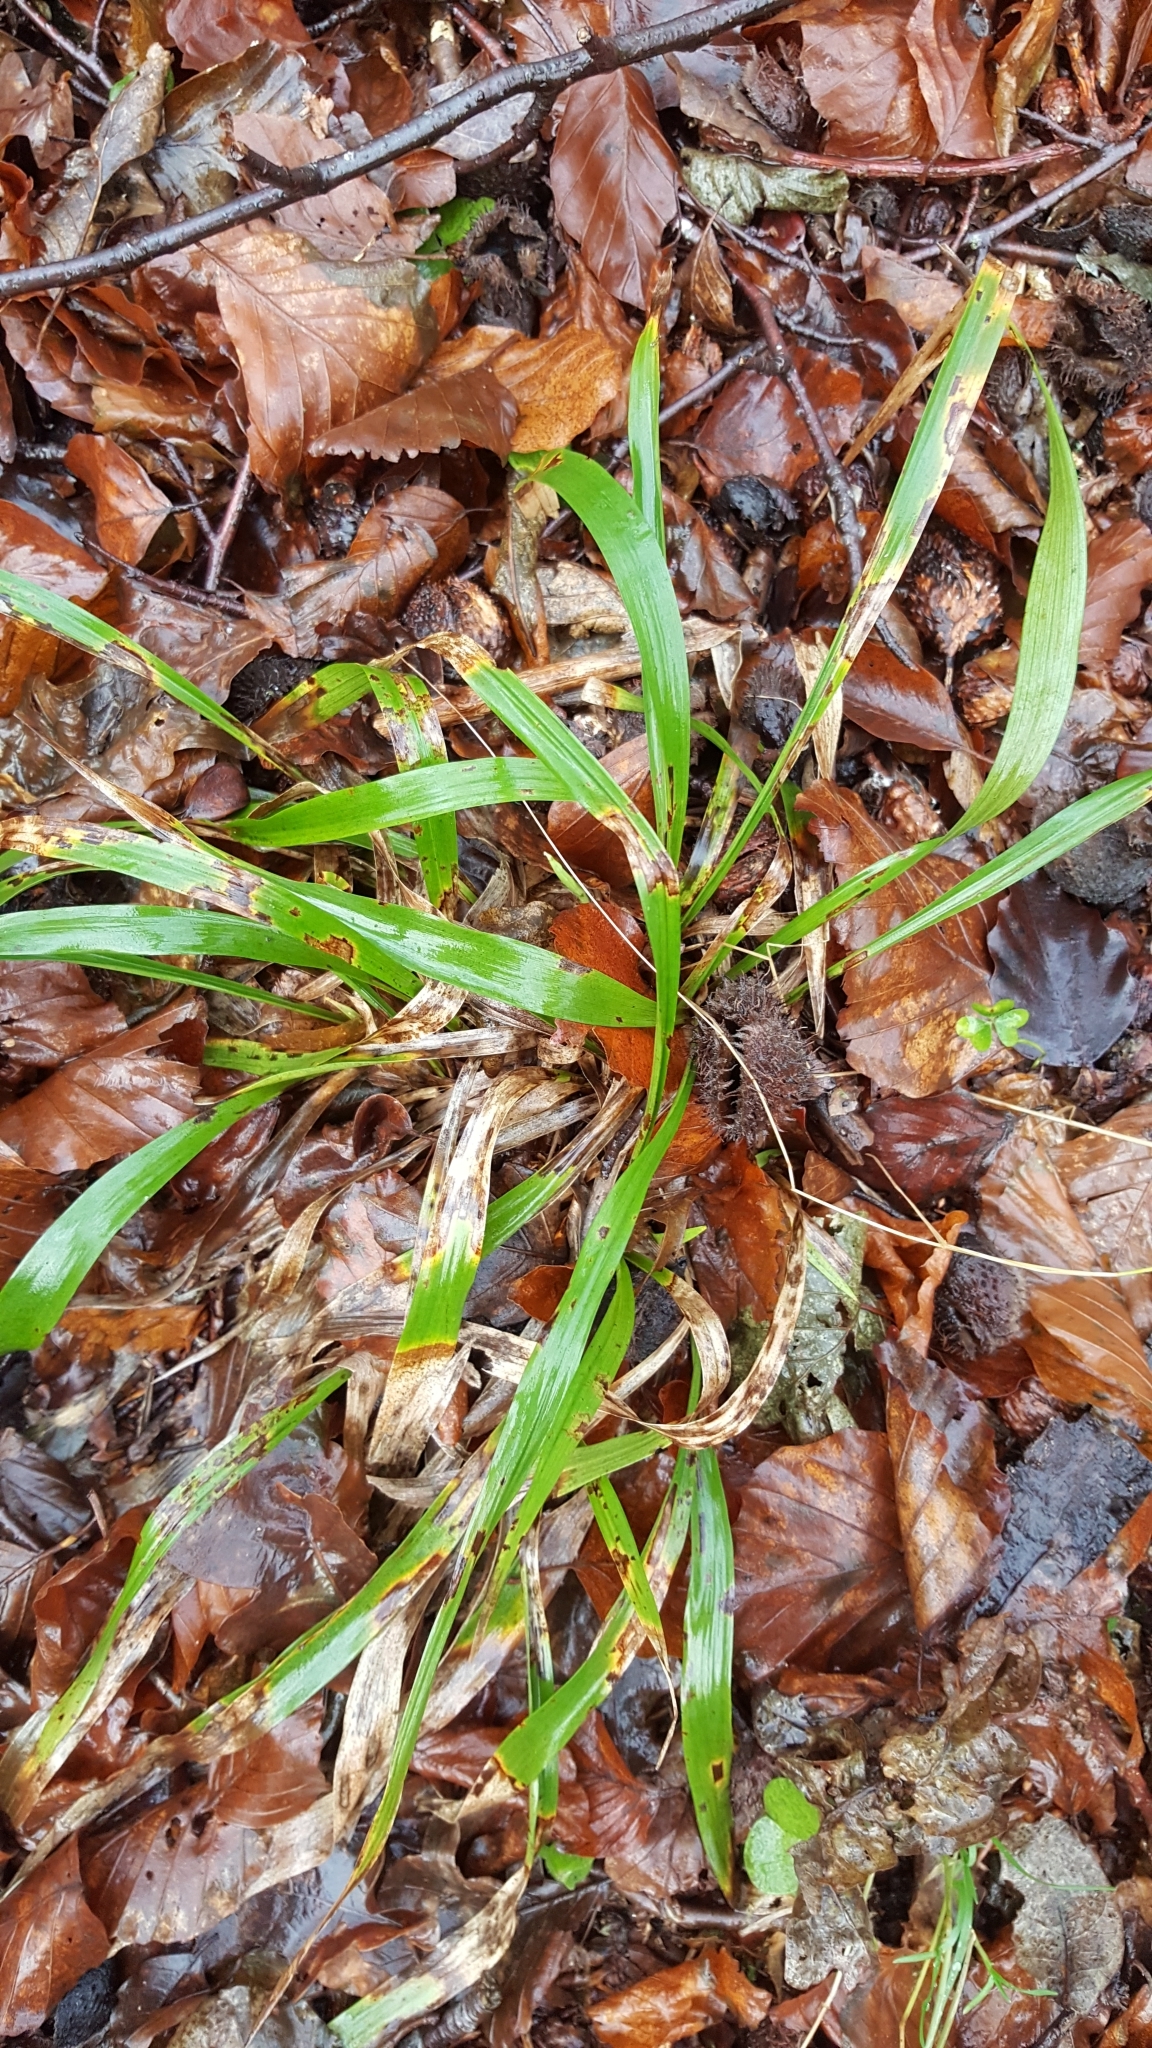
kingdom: Plantae
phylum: Tracheophyta
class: Liliopsida
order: Poales
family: Juncaceae
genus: Luzula
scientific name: Luzula pilosa
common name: Hairy wood-rush
